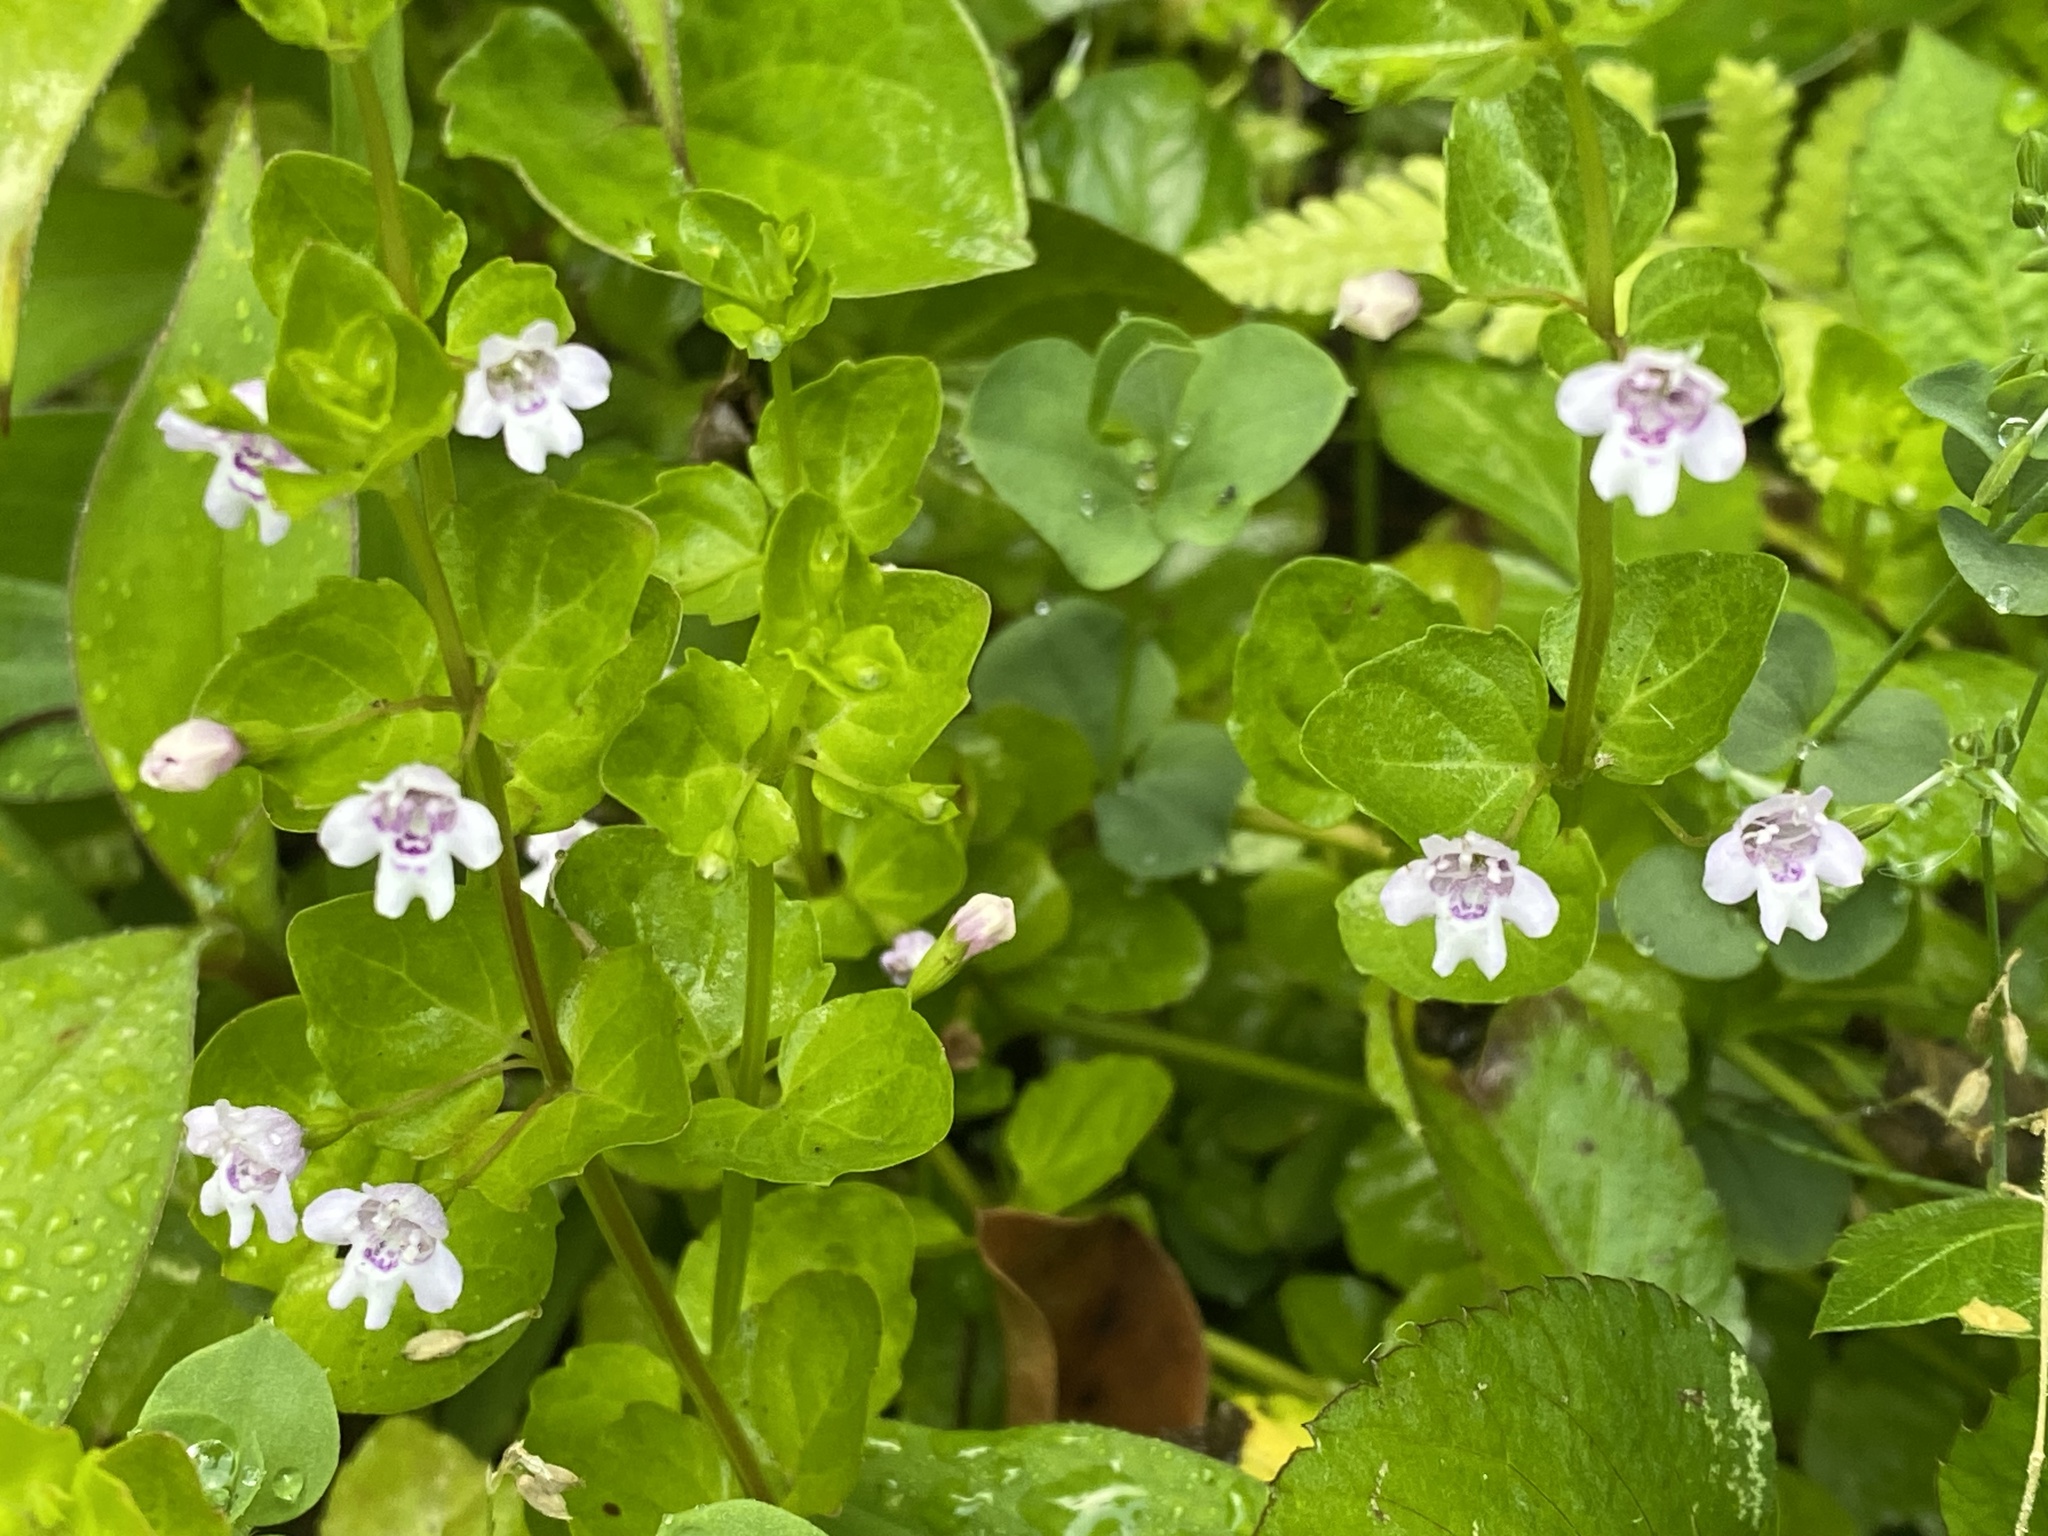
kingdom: Plantae
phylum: Tracheophyta
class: Magnoliopsida
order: Lamiales
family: Lamiaceae
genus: Clinopodium
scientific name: Clinopodium brownei
